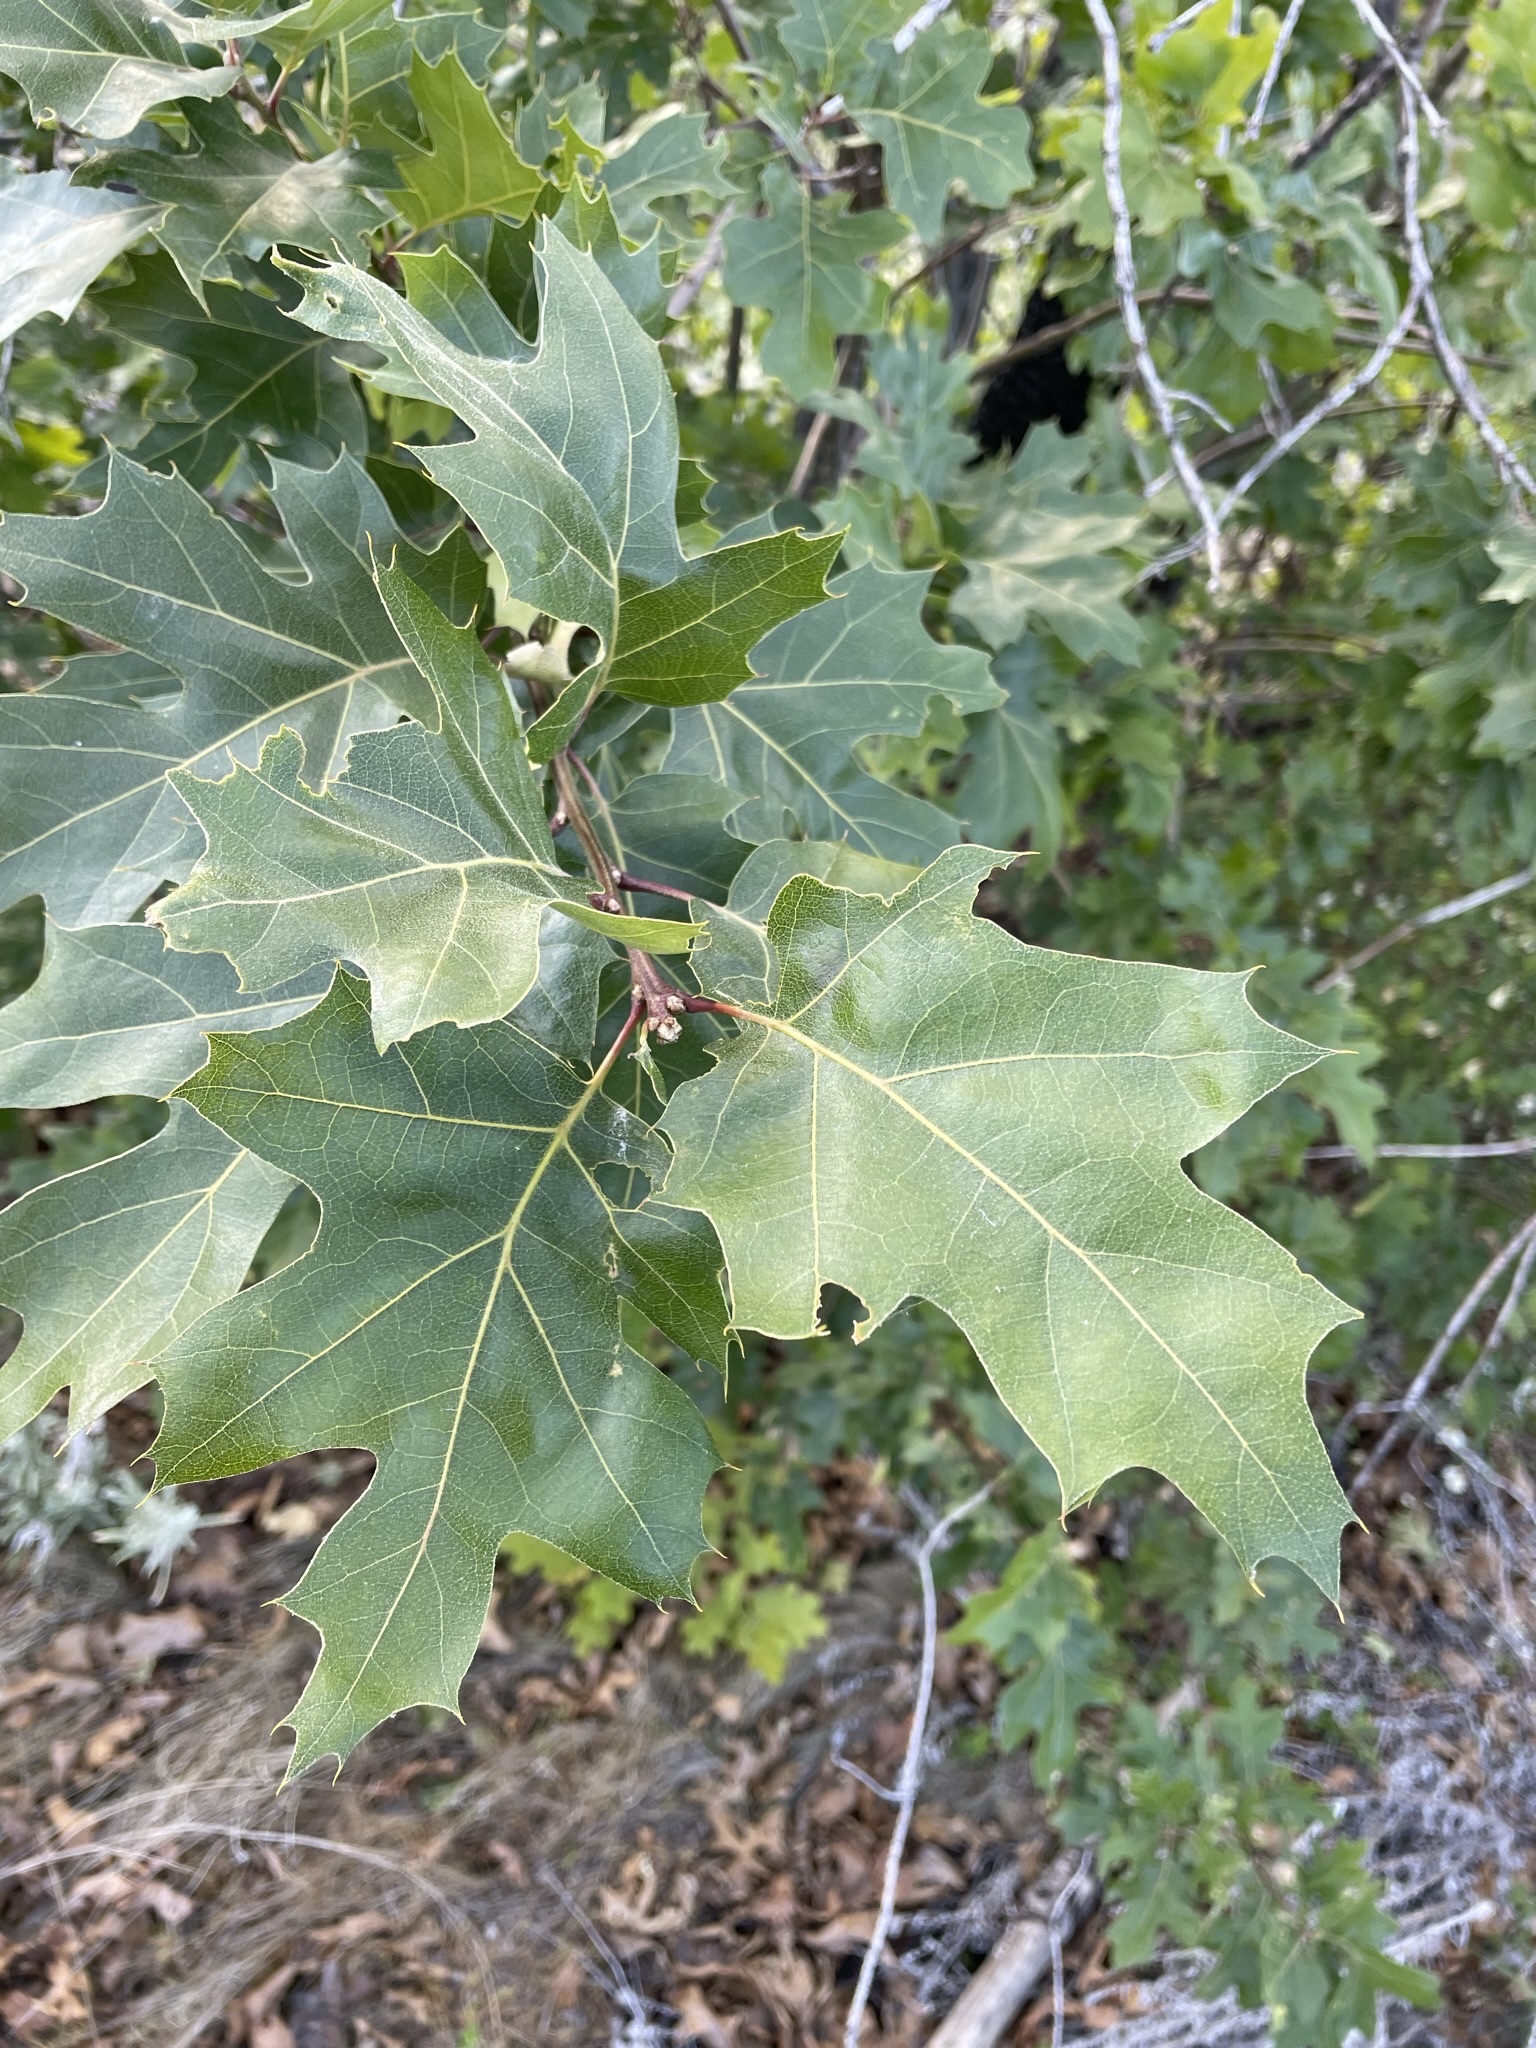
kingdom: Plantae
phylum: Tracheophyta
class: Magnoliopsida
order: Fagales
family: Fagaceae
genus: Quercus
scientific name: Quercus kelloggii
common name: California black oak
